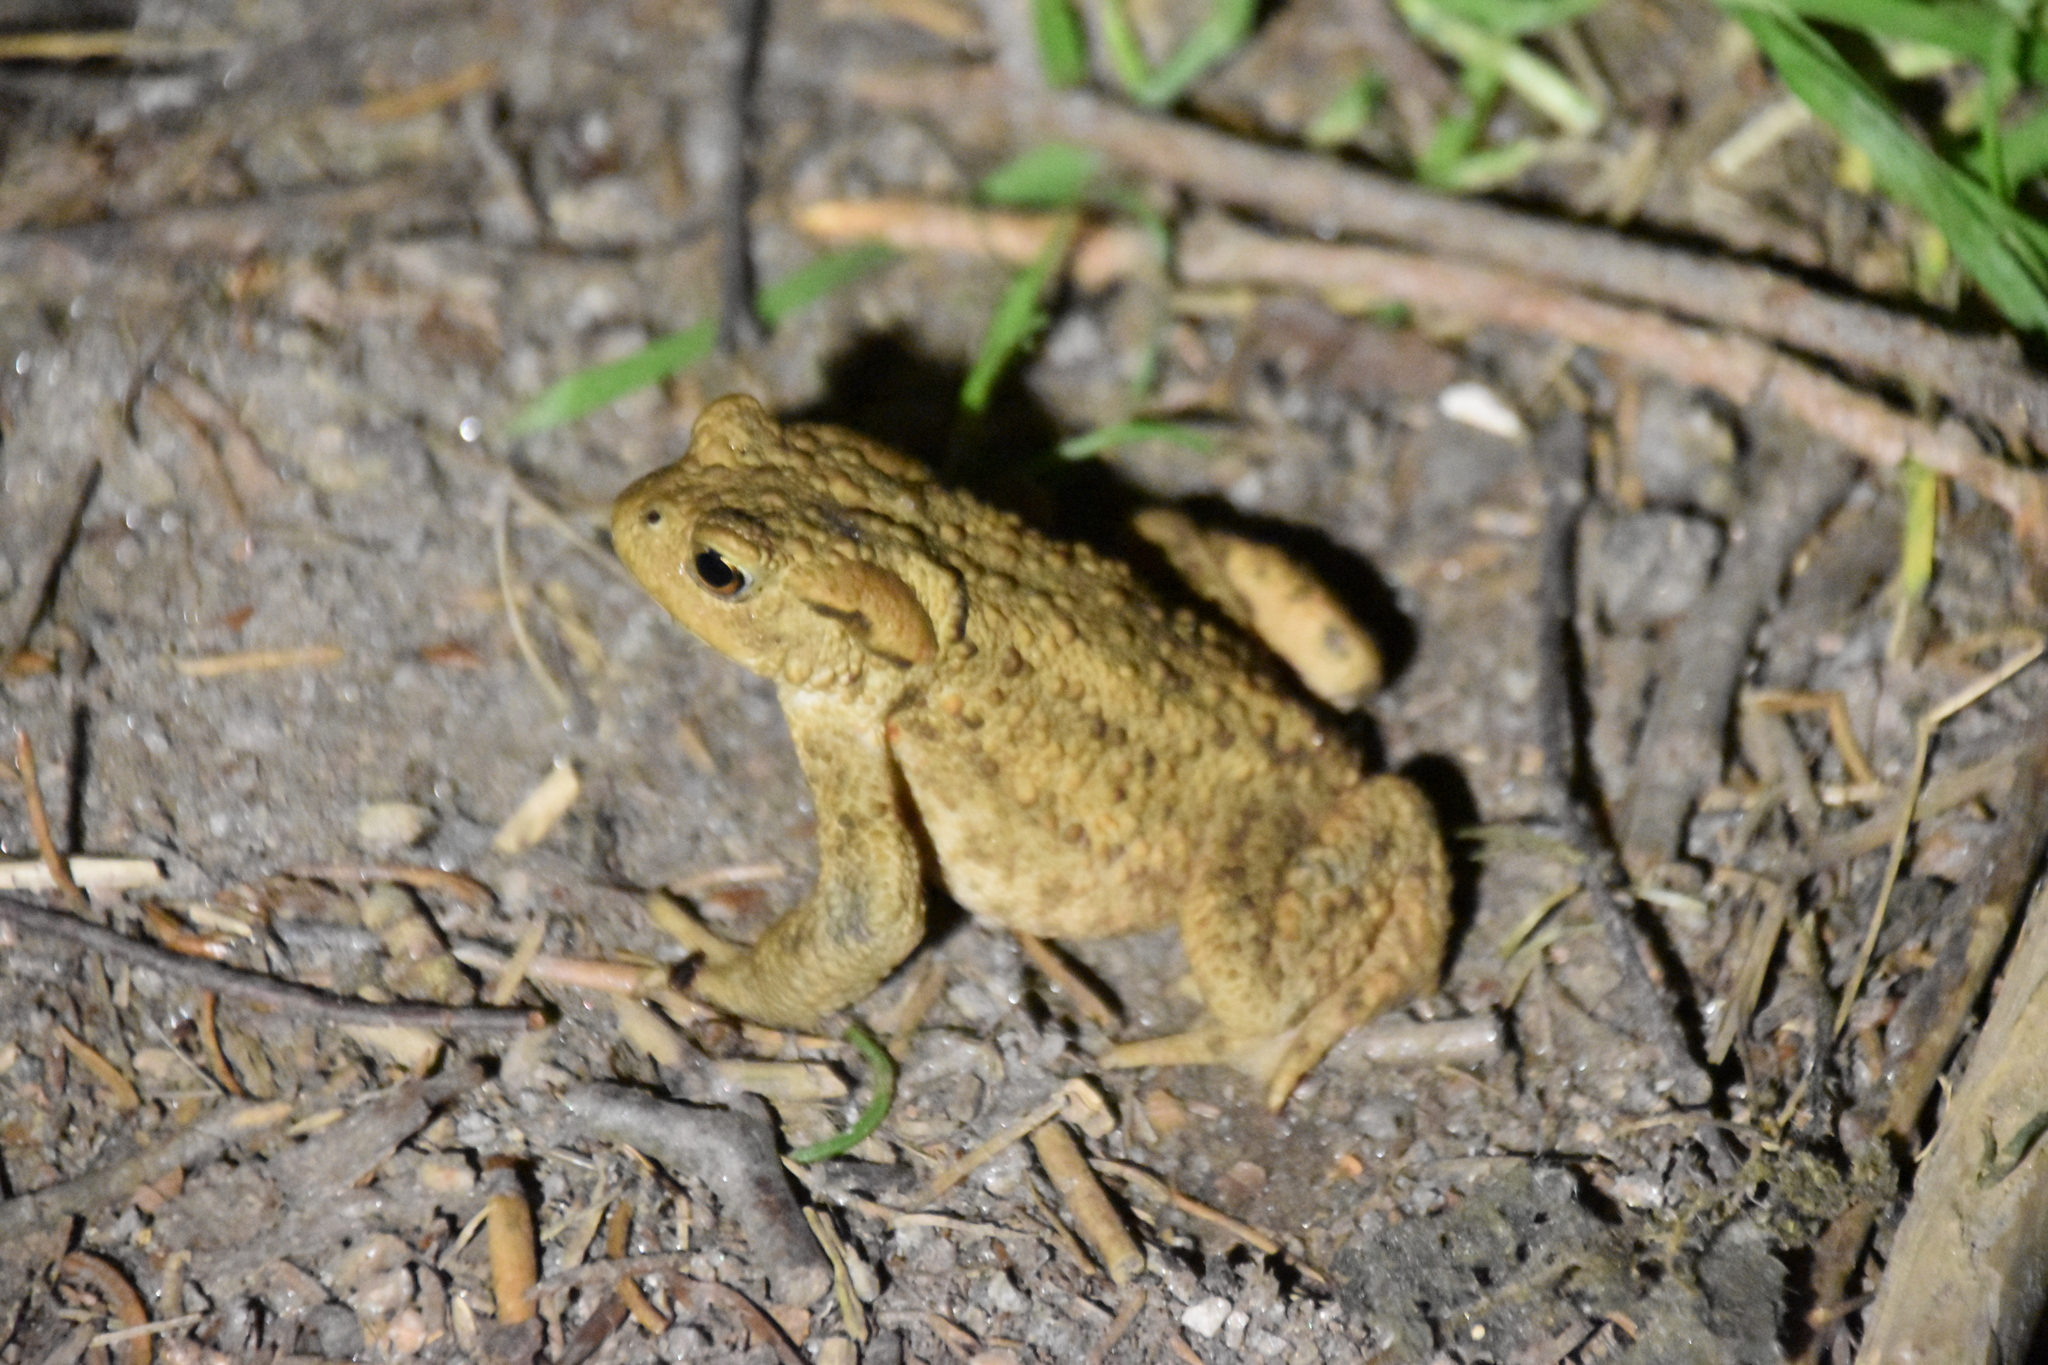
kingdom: Animalia
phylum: Chordata
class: Amphibia
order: Anura
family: Bufonidae
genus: Bufo
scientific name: Bufo bufo
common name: Common toad
